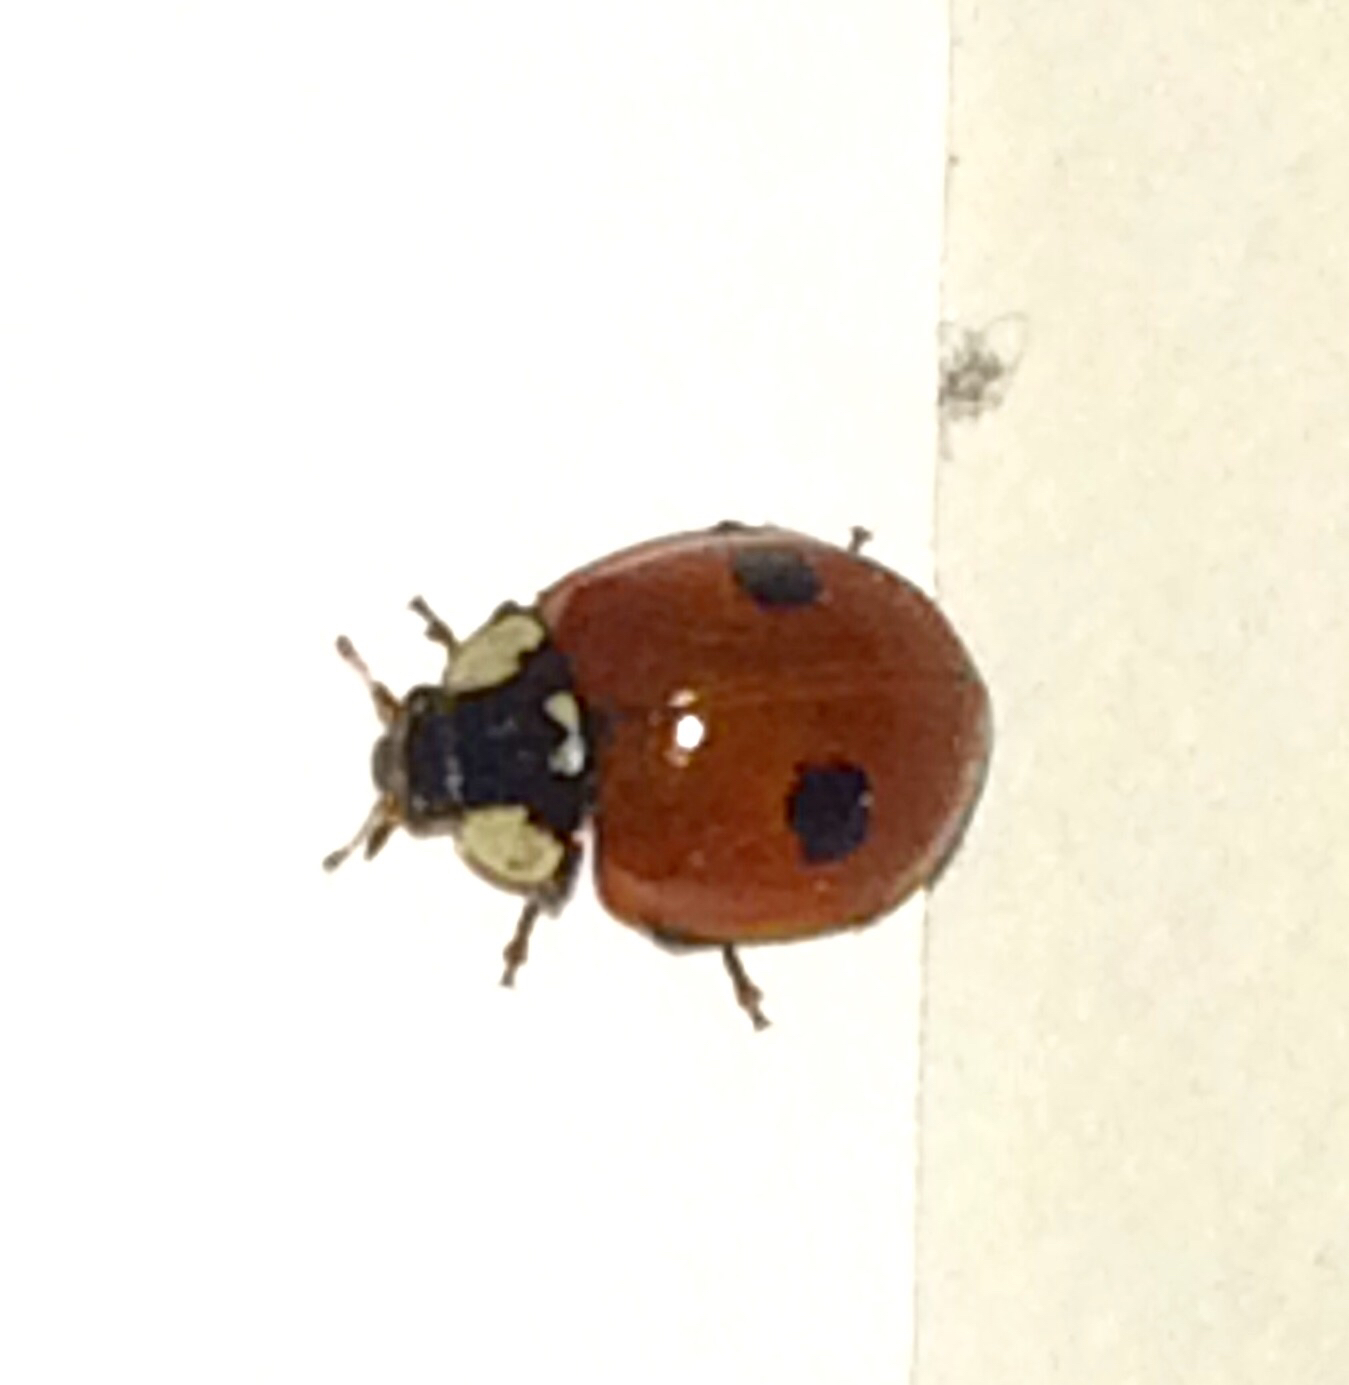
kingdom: Animalia
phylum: Arthropoda
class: Insecta
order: Coleoptera
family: Coccinellidae
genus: Adalia
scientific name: Adalia bipunctata
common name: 2-spot ladybird
